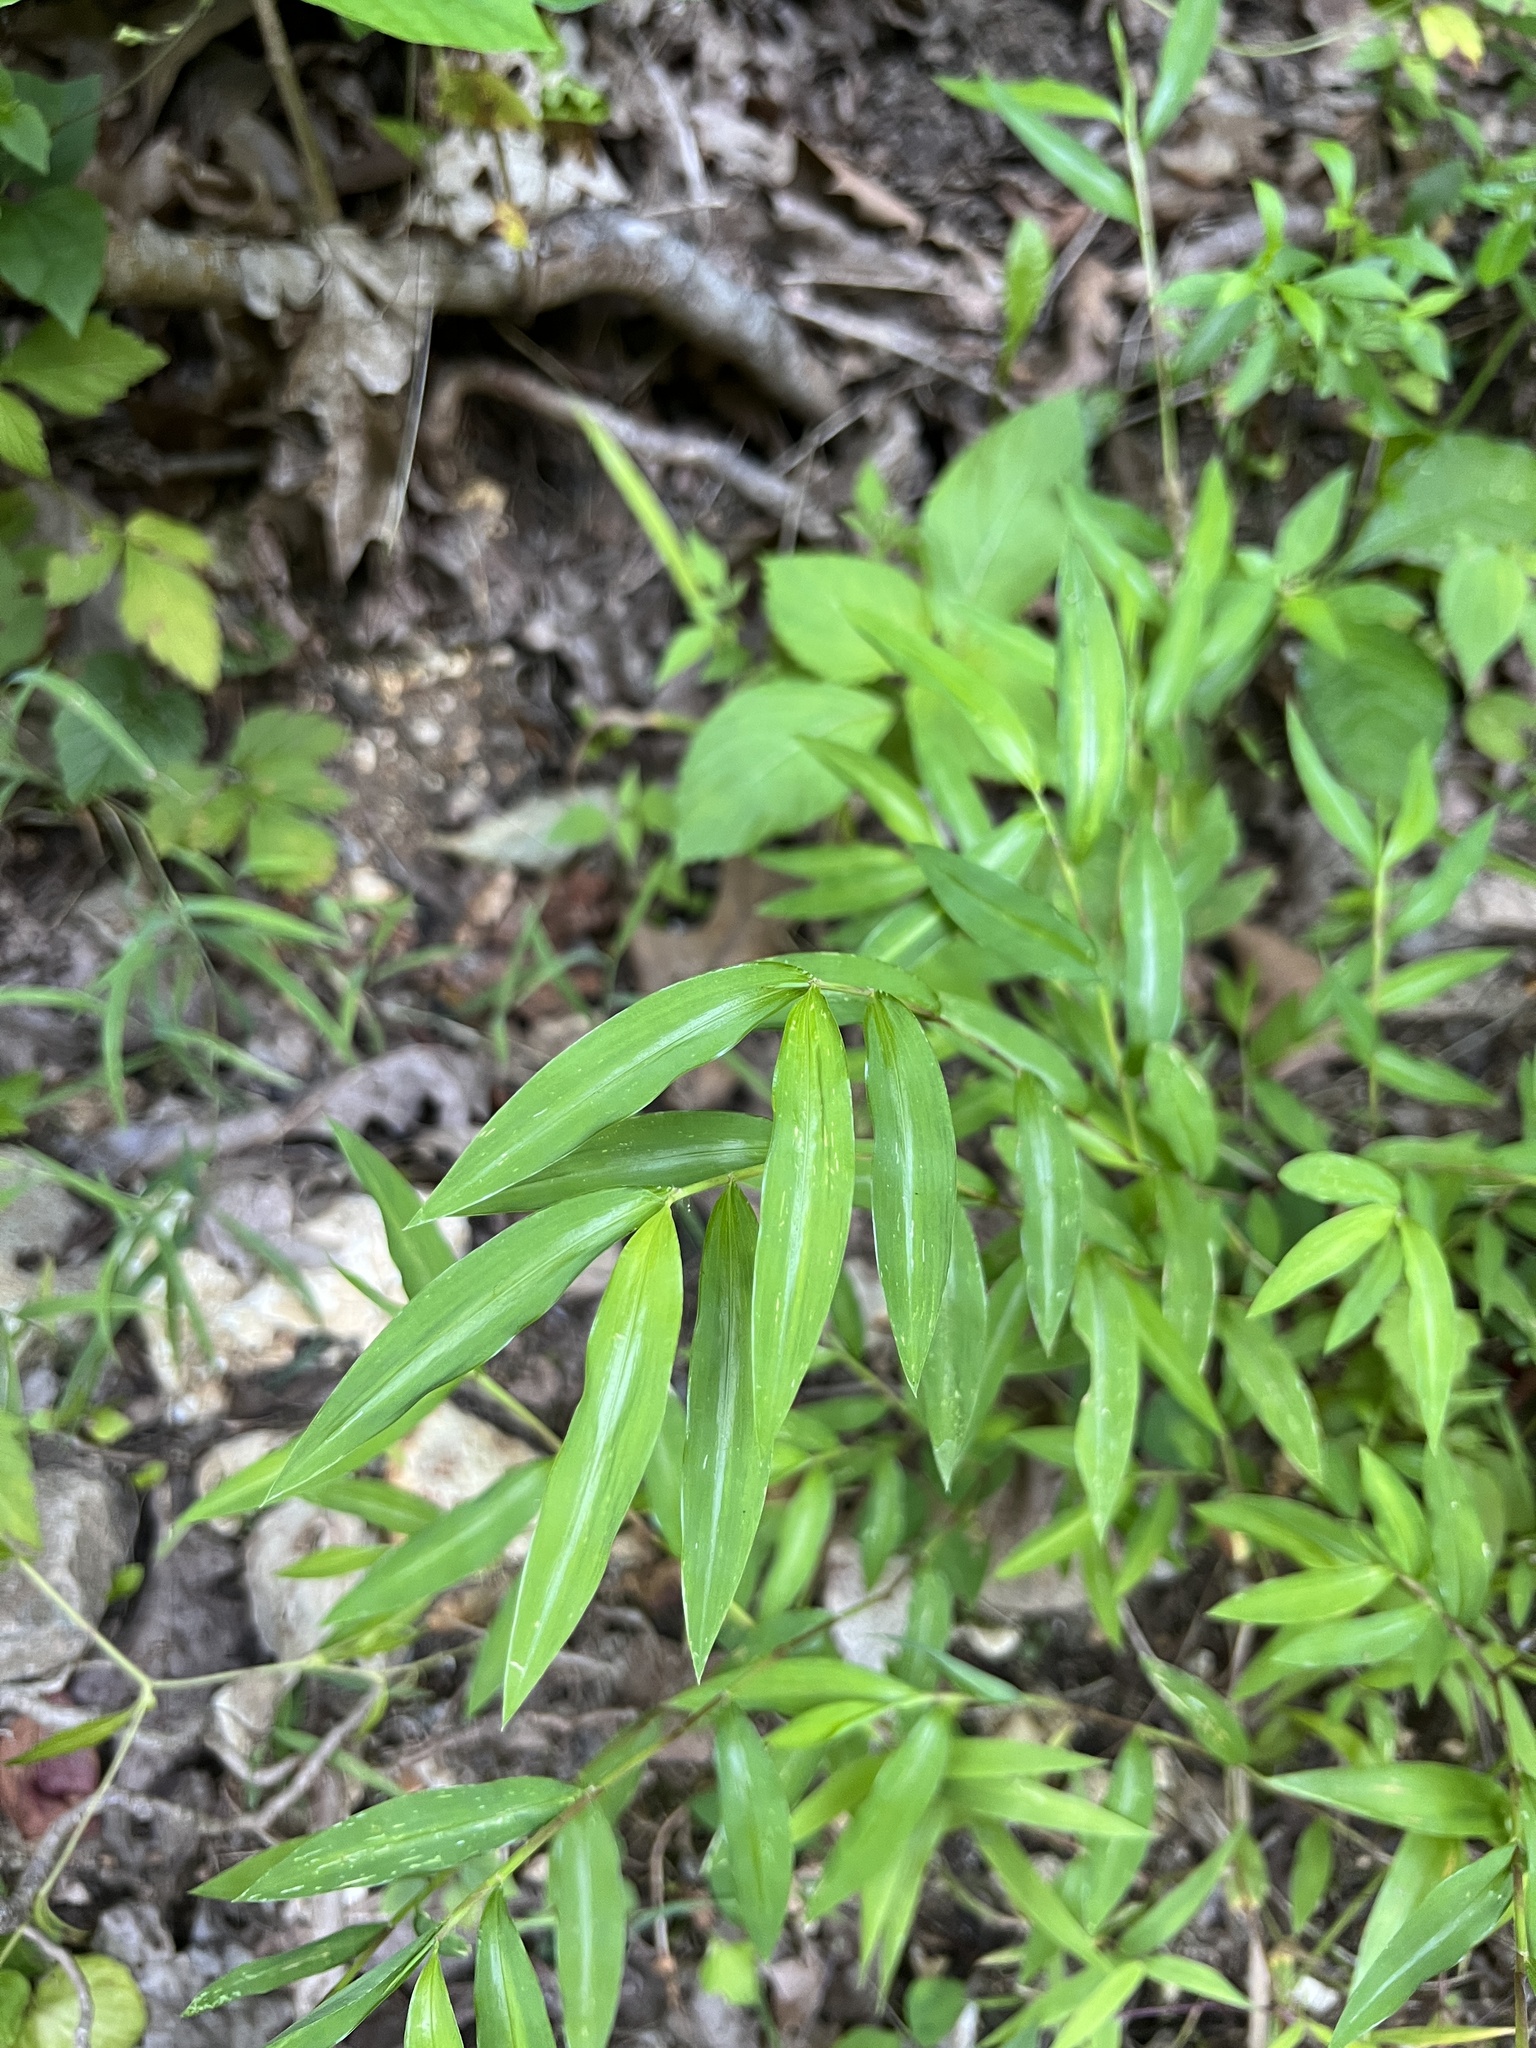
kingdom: Plantae
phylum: Tracheophyta
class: Liliopsida
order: Poales
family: Poaceae
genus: Microstegium
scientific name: Microstegium vimineum
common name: Japanese stiltgrass
